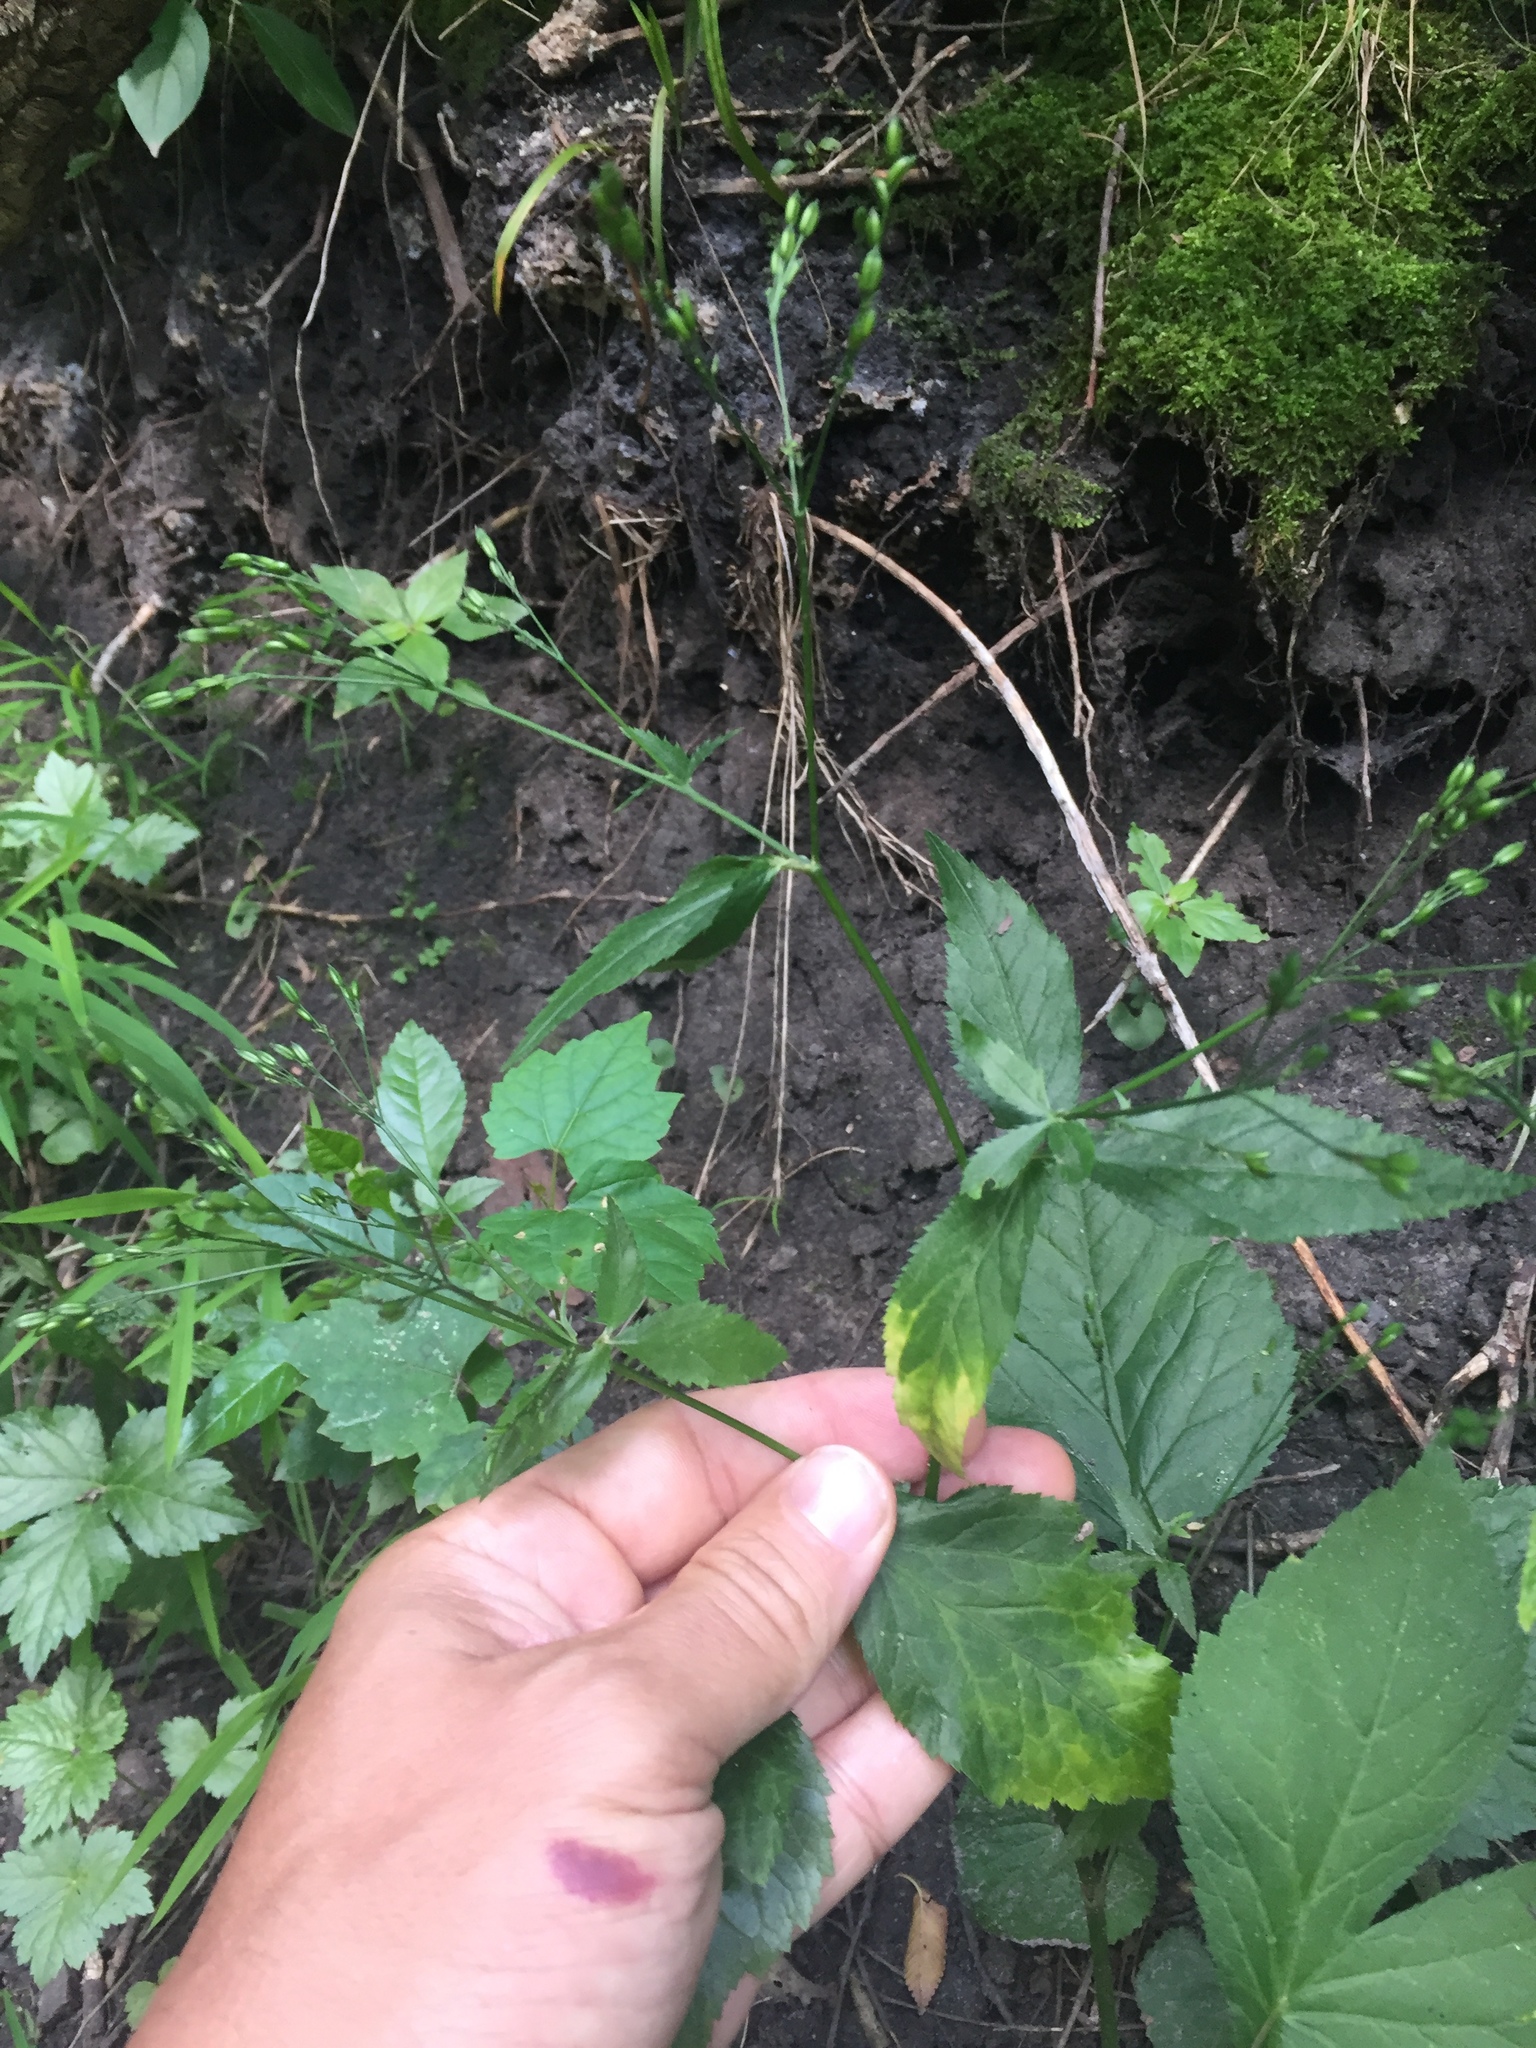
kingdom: Plantae
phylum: Tracheophyta
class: Magnoliopsida
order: Apiales
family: Apiaceae
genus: Cryptotaenia
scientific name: Cryptotaenia canadensis
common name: Honewort
